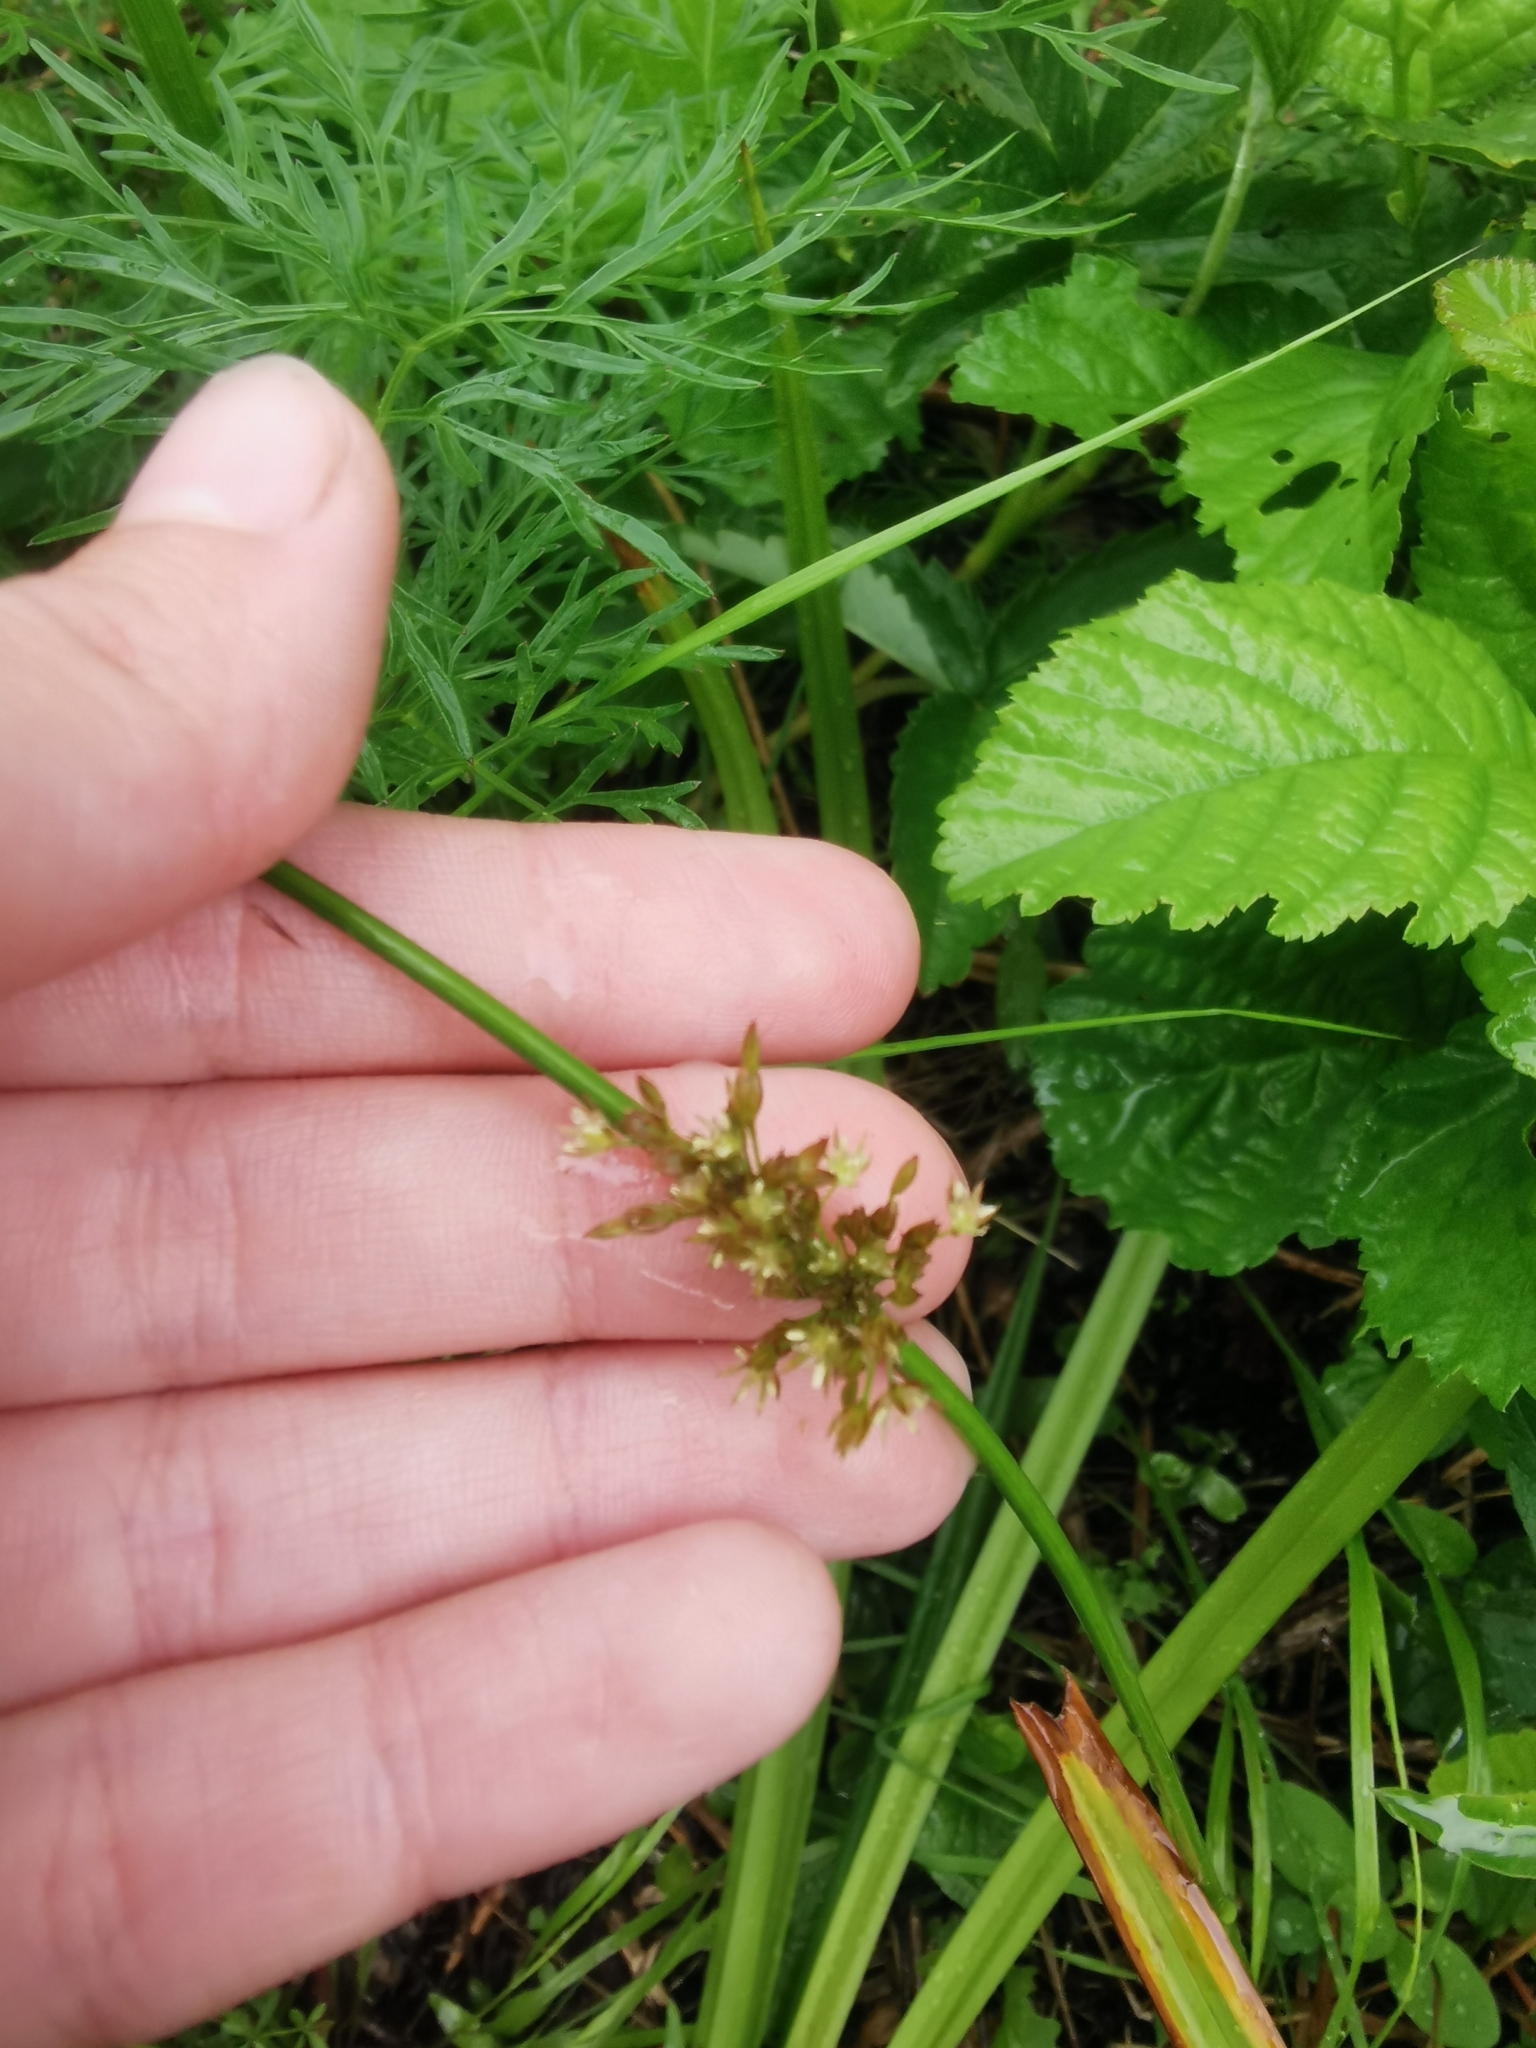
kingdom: Plantae
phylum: Tracheophyta
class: Liliopsida
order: Poales
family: Juncaceae
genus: Juncus
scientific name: Juncus effusus
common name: Soft rush
